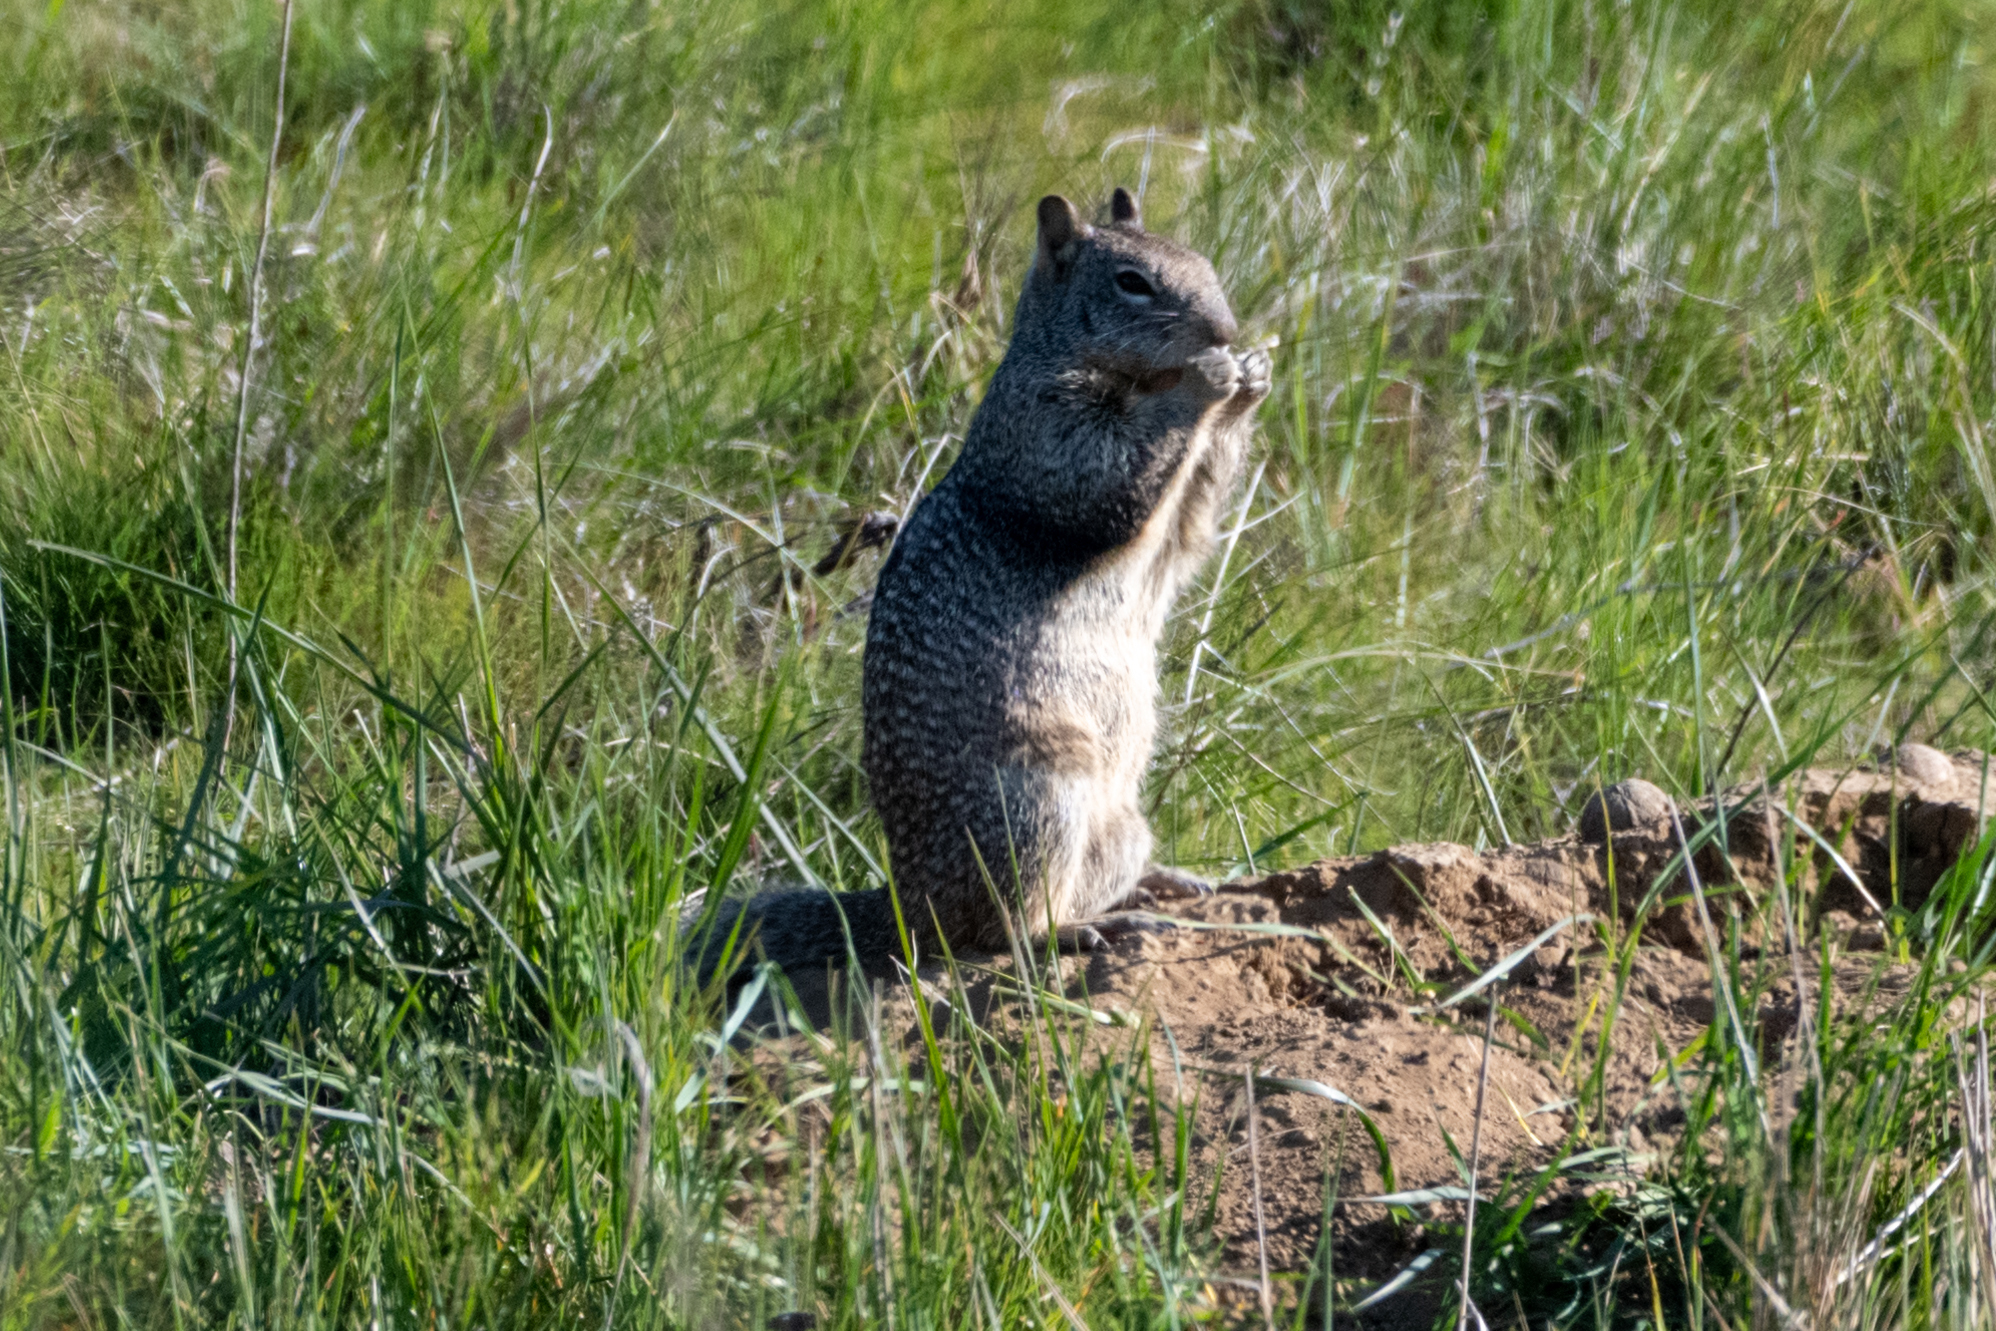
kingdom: Animalia
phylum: Chordata
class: Mammalia
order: Rodentia
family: Sciuridae
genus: Otospermophilus
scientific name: Otospermophilus beecheyi
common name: California ground squirrel
